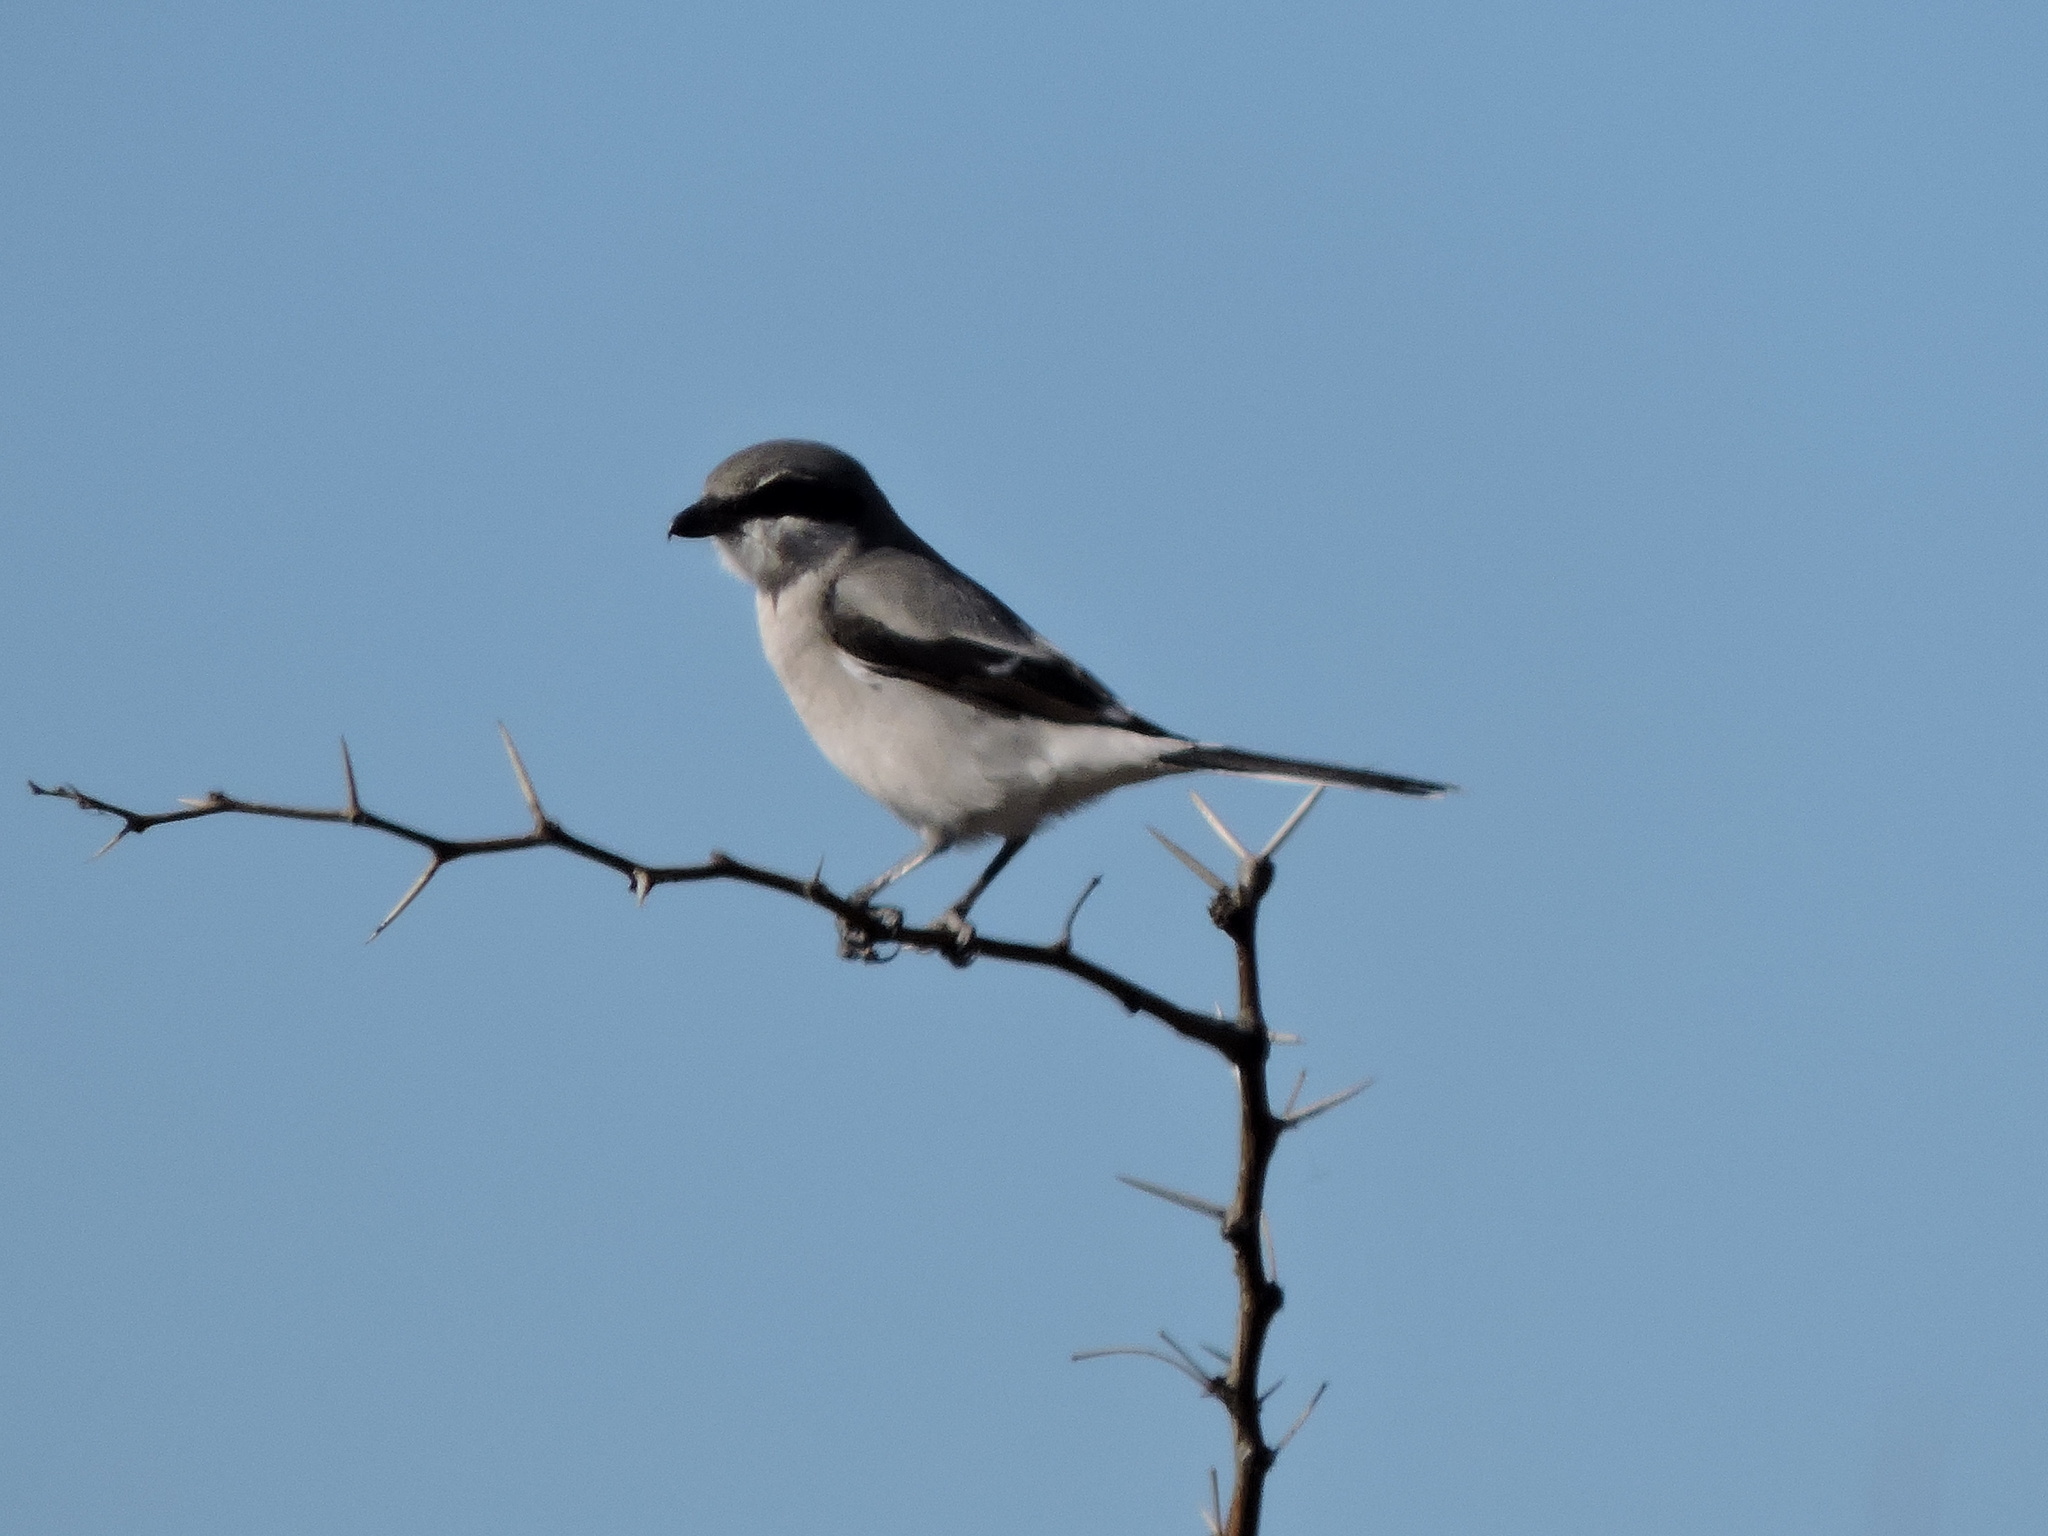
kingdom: Animalia
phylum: Chordata
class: Aves
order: Passeriformes
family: Laniidae
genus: Lanius
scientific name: Lanius ludovicianus
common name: Loggerhead shrike
